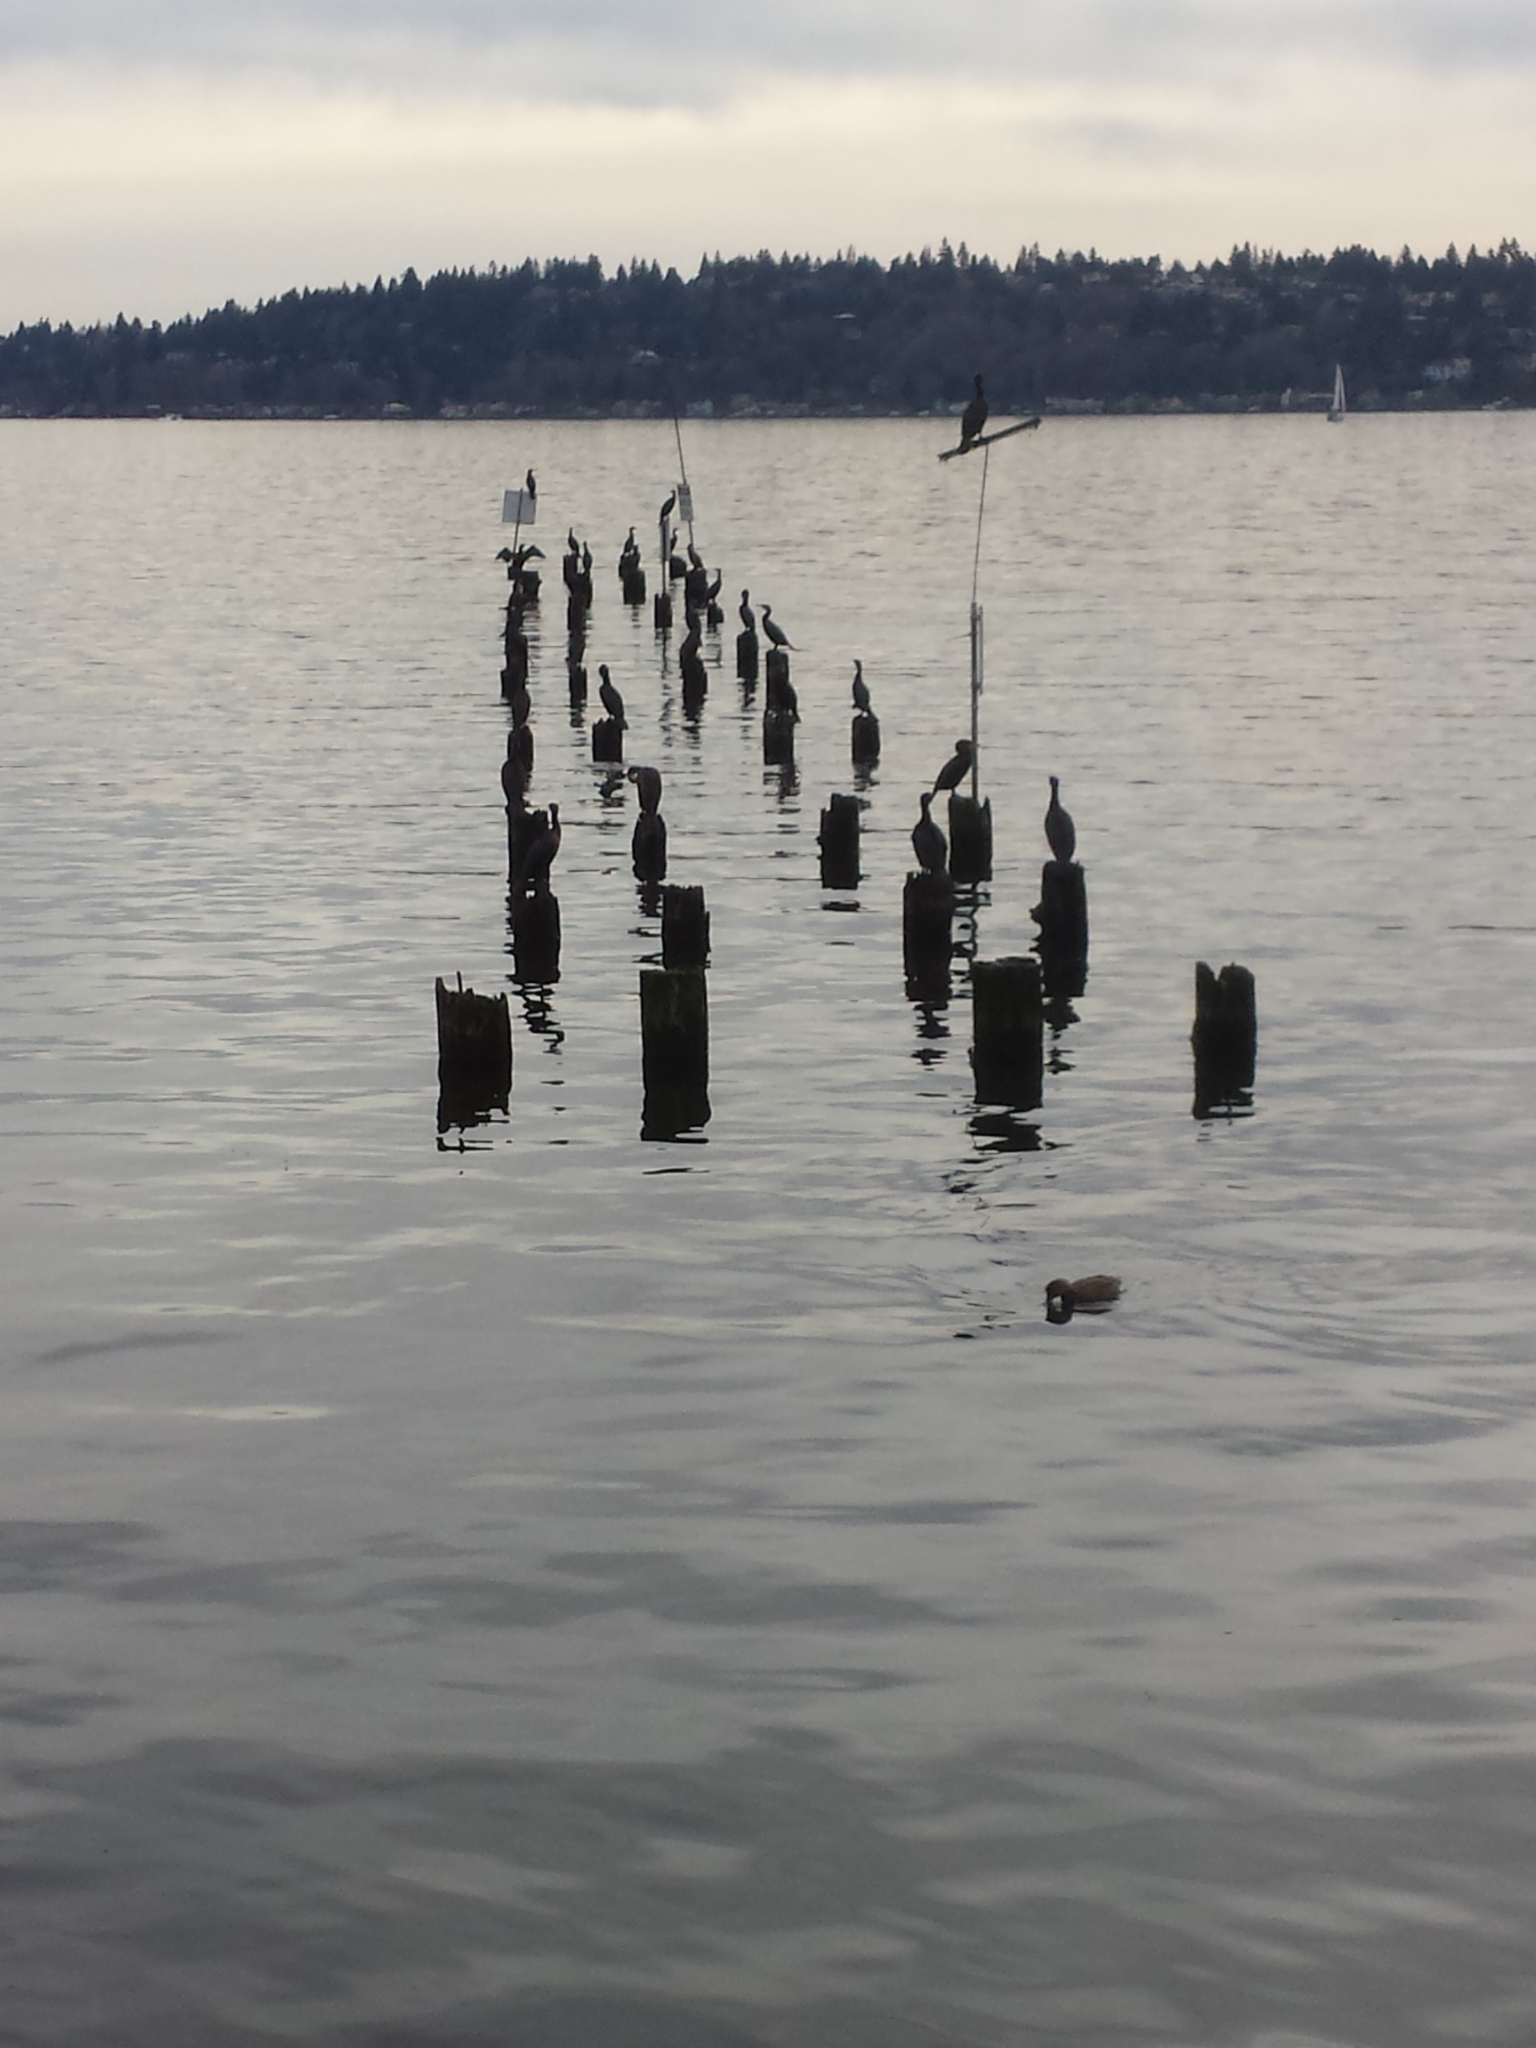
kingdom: Animalia
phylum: Chordata
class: Aves
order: Suliformes
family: Phalacrocoracidae
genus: Phalacrocorax
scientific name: Phalacrocorax auritus
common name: Double-crested cormorant
